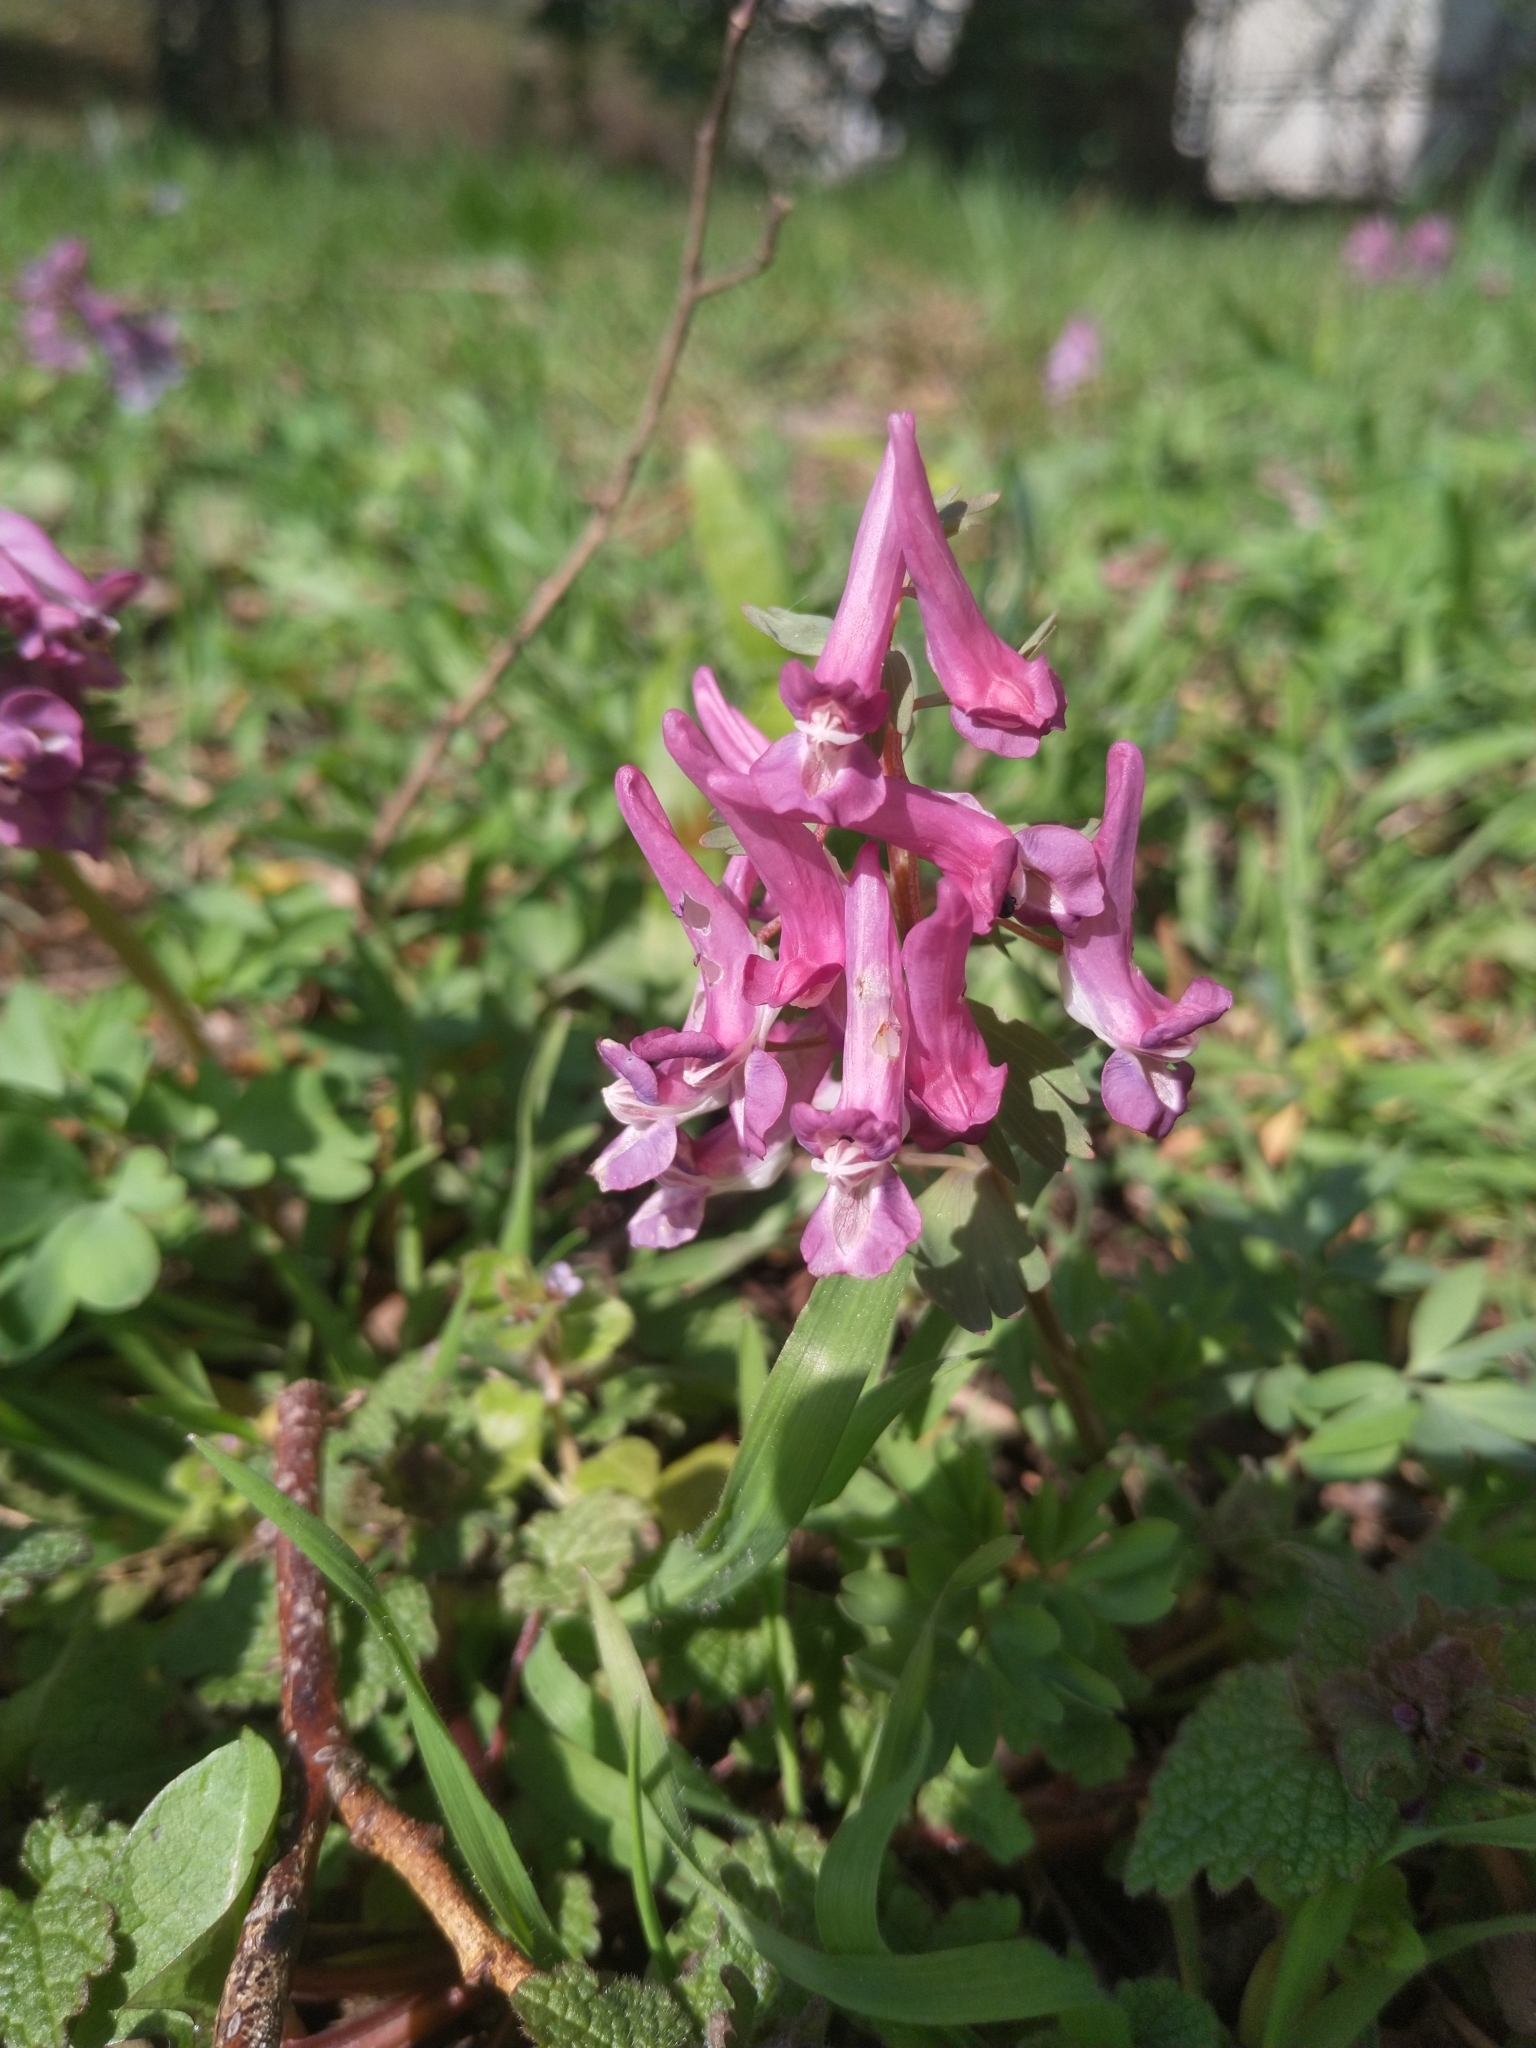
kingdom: Plantae
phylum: Tracheophyta
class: Magnoliopsida
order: Ranunculales
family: Papaveraceae
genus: Corydalis
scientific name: Corydalis solida
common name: Bird-in-a-bush
